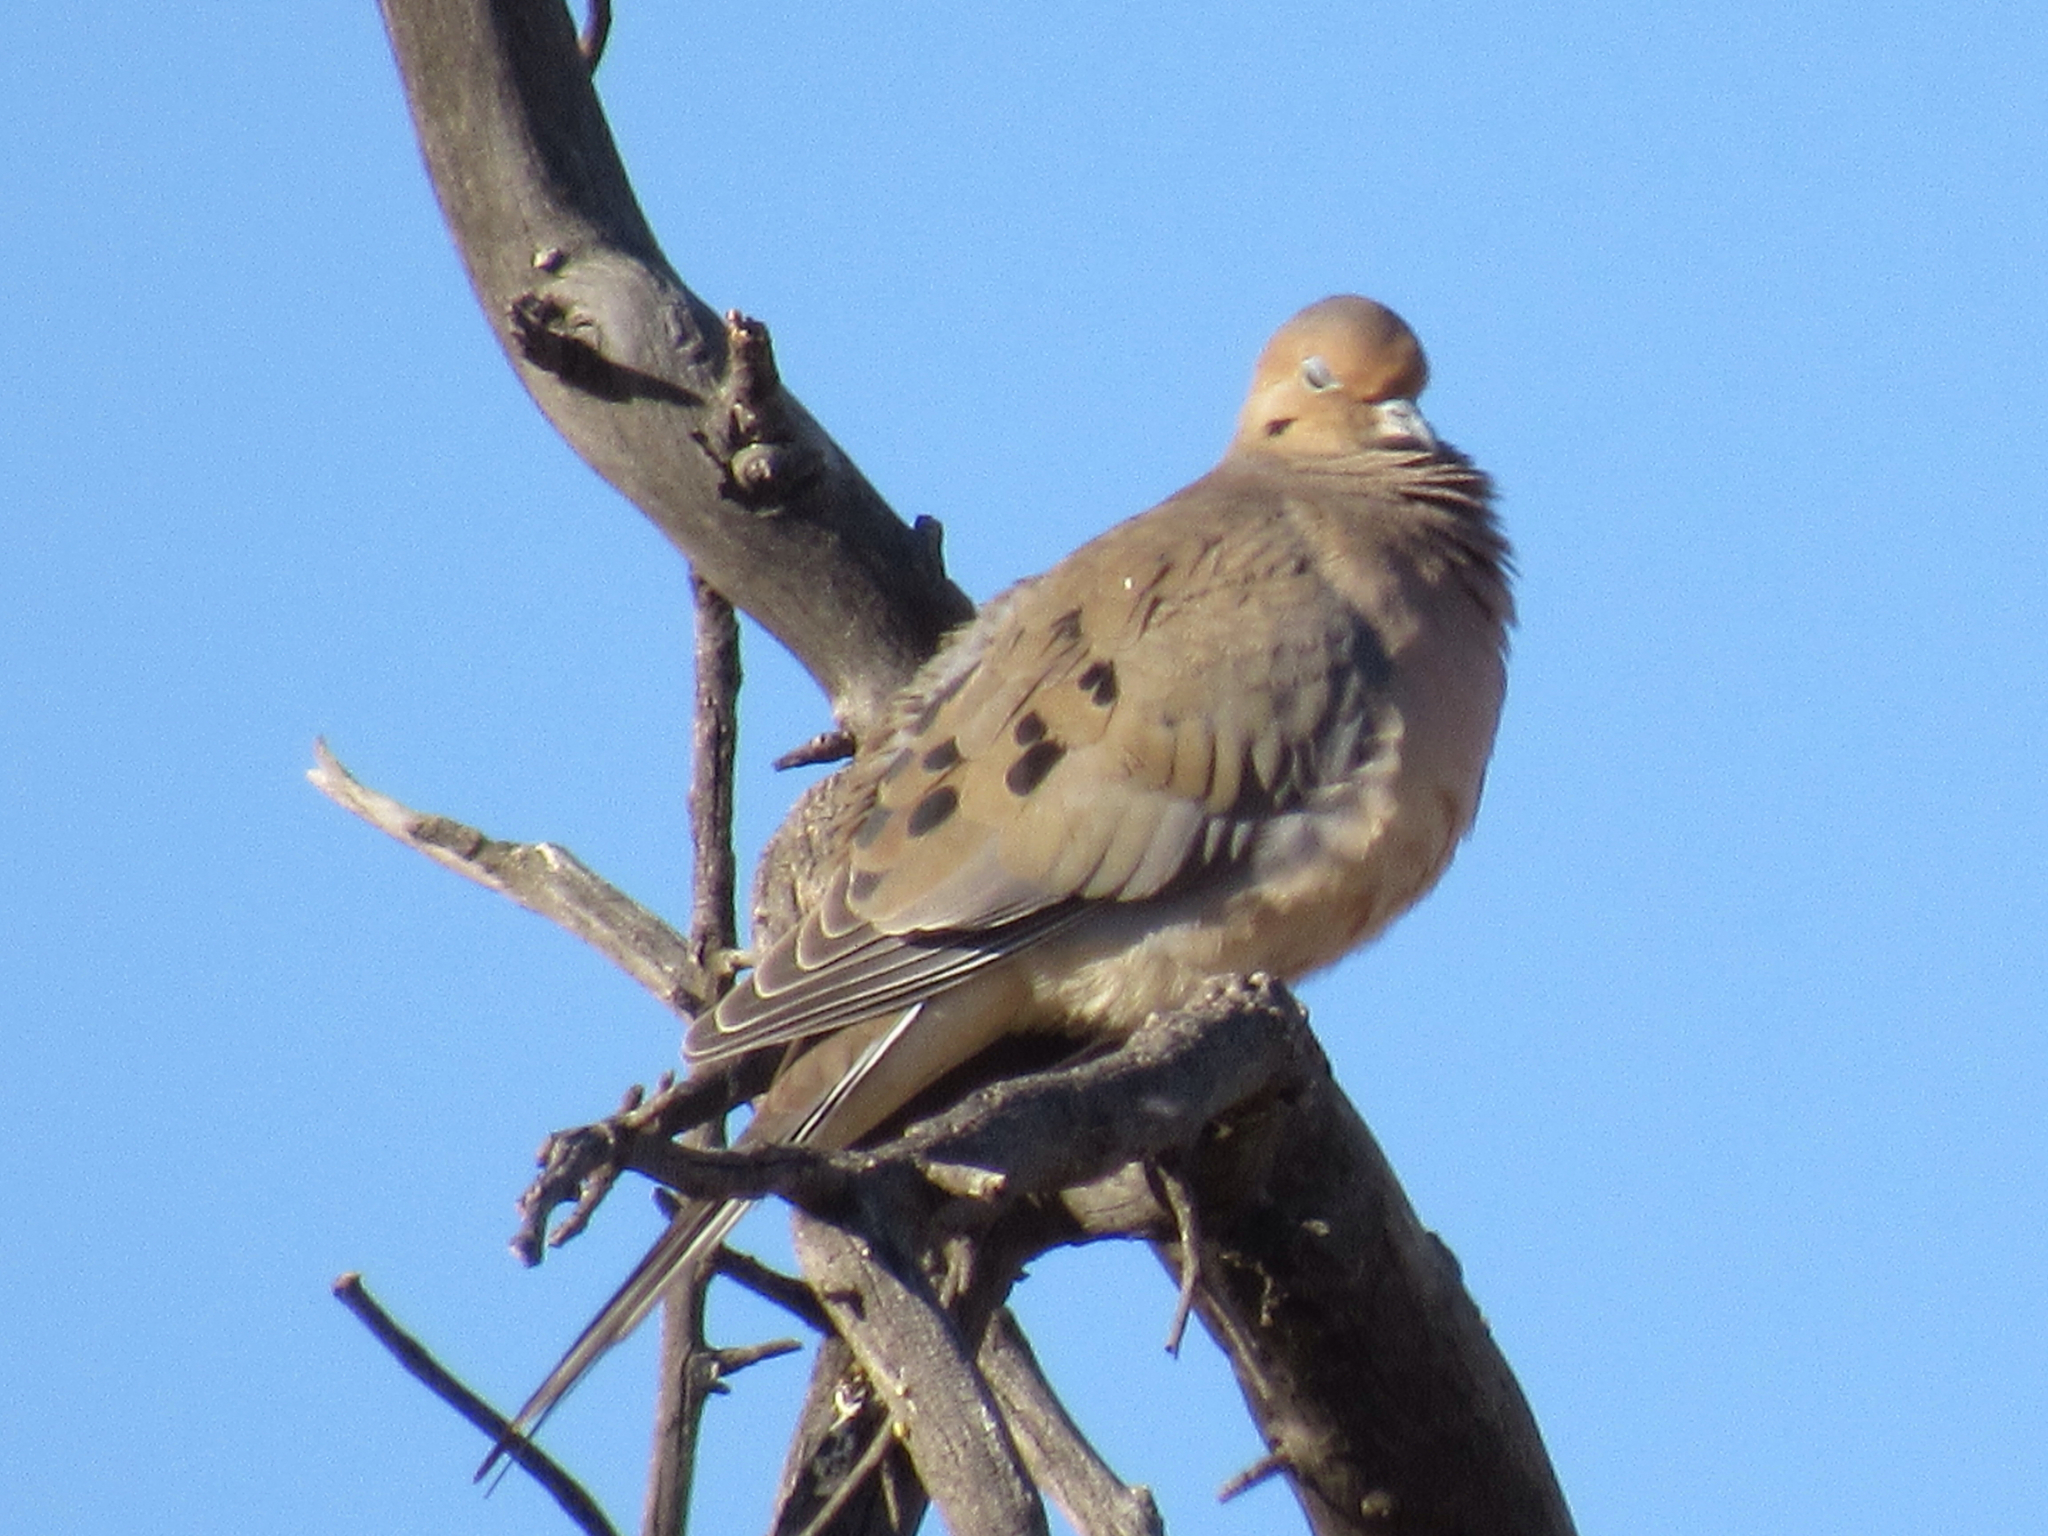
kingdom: Animalia
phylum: Chordata
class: Aves
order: Columbiformes
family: Columbidae
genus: Zenaida
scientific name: Zenaida macroura
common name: Mourning dove
